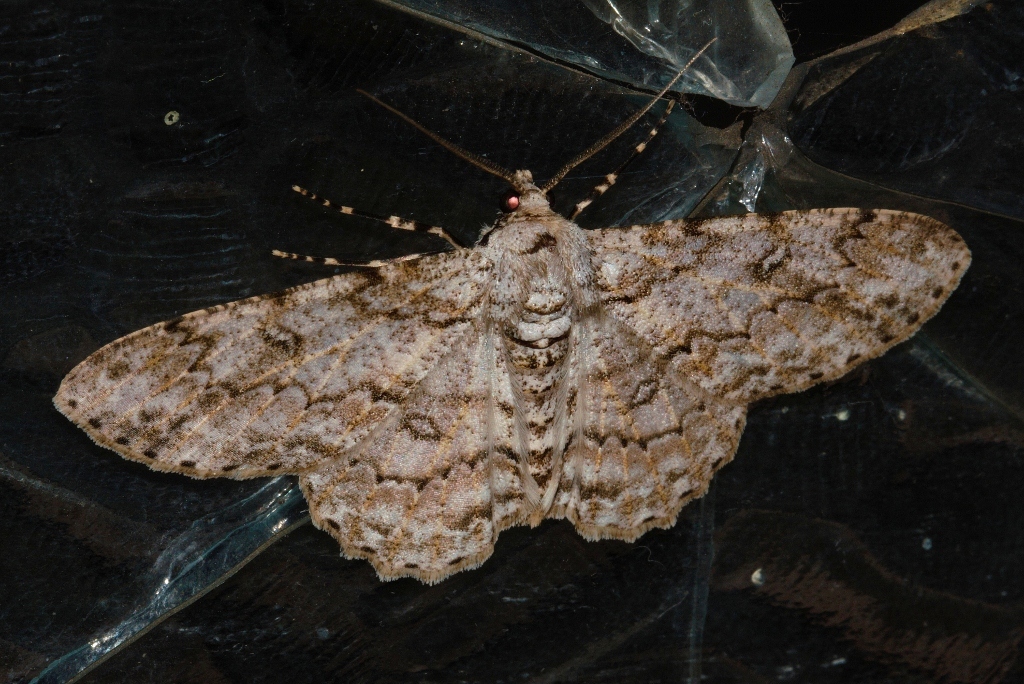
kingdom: Animalia
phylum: Arthropoda
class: Insecta
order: Lepidoptera
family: Geometridae
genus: Ascotis
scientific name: Ascotis reciprocaria
